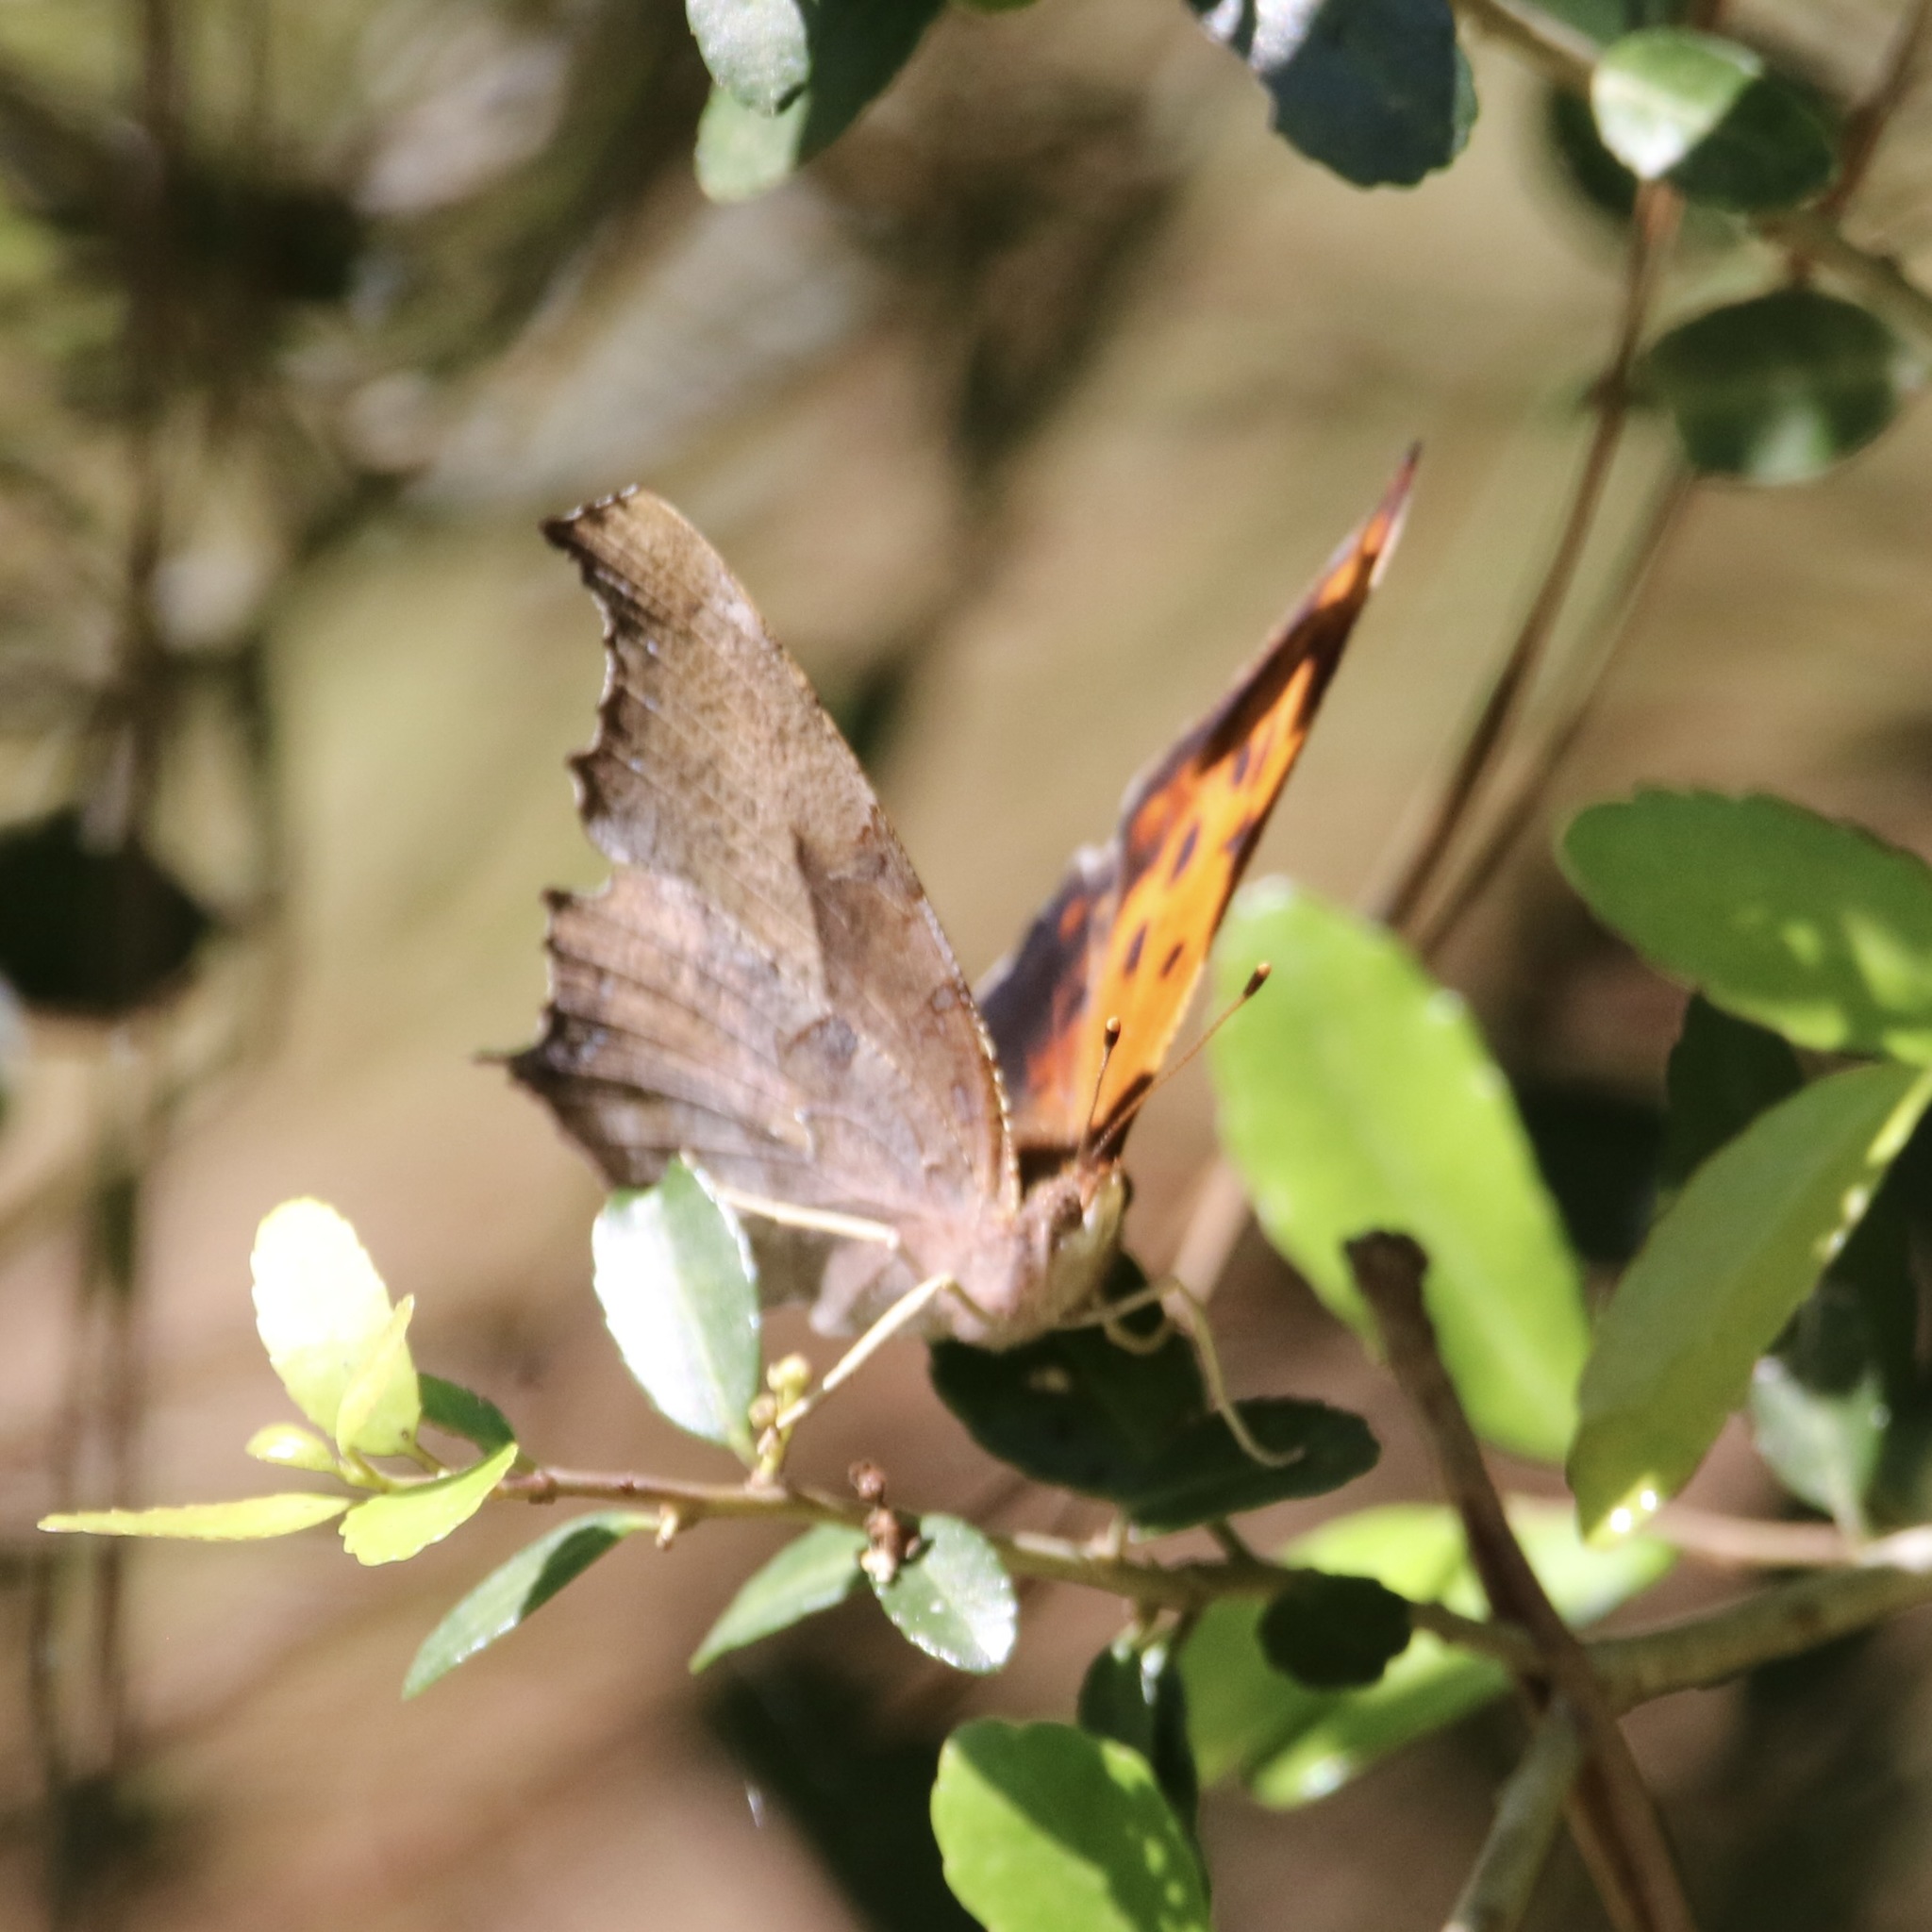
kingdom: Animalia
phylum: Arthropoda
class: Insecta
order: Lepidoptera
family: Nymphalidae
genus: Polygonia
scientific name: Polygonia interrogationis
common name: Question mark
